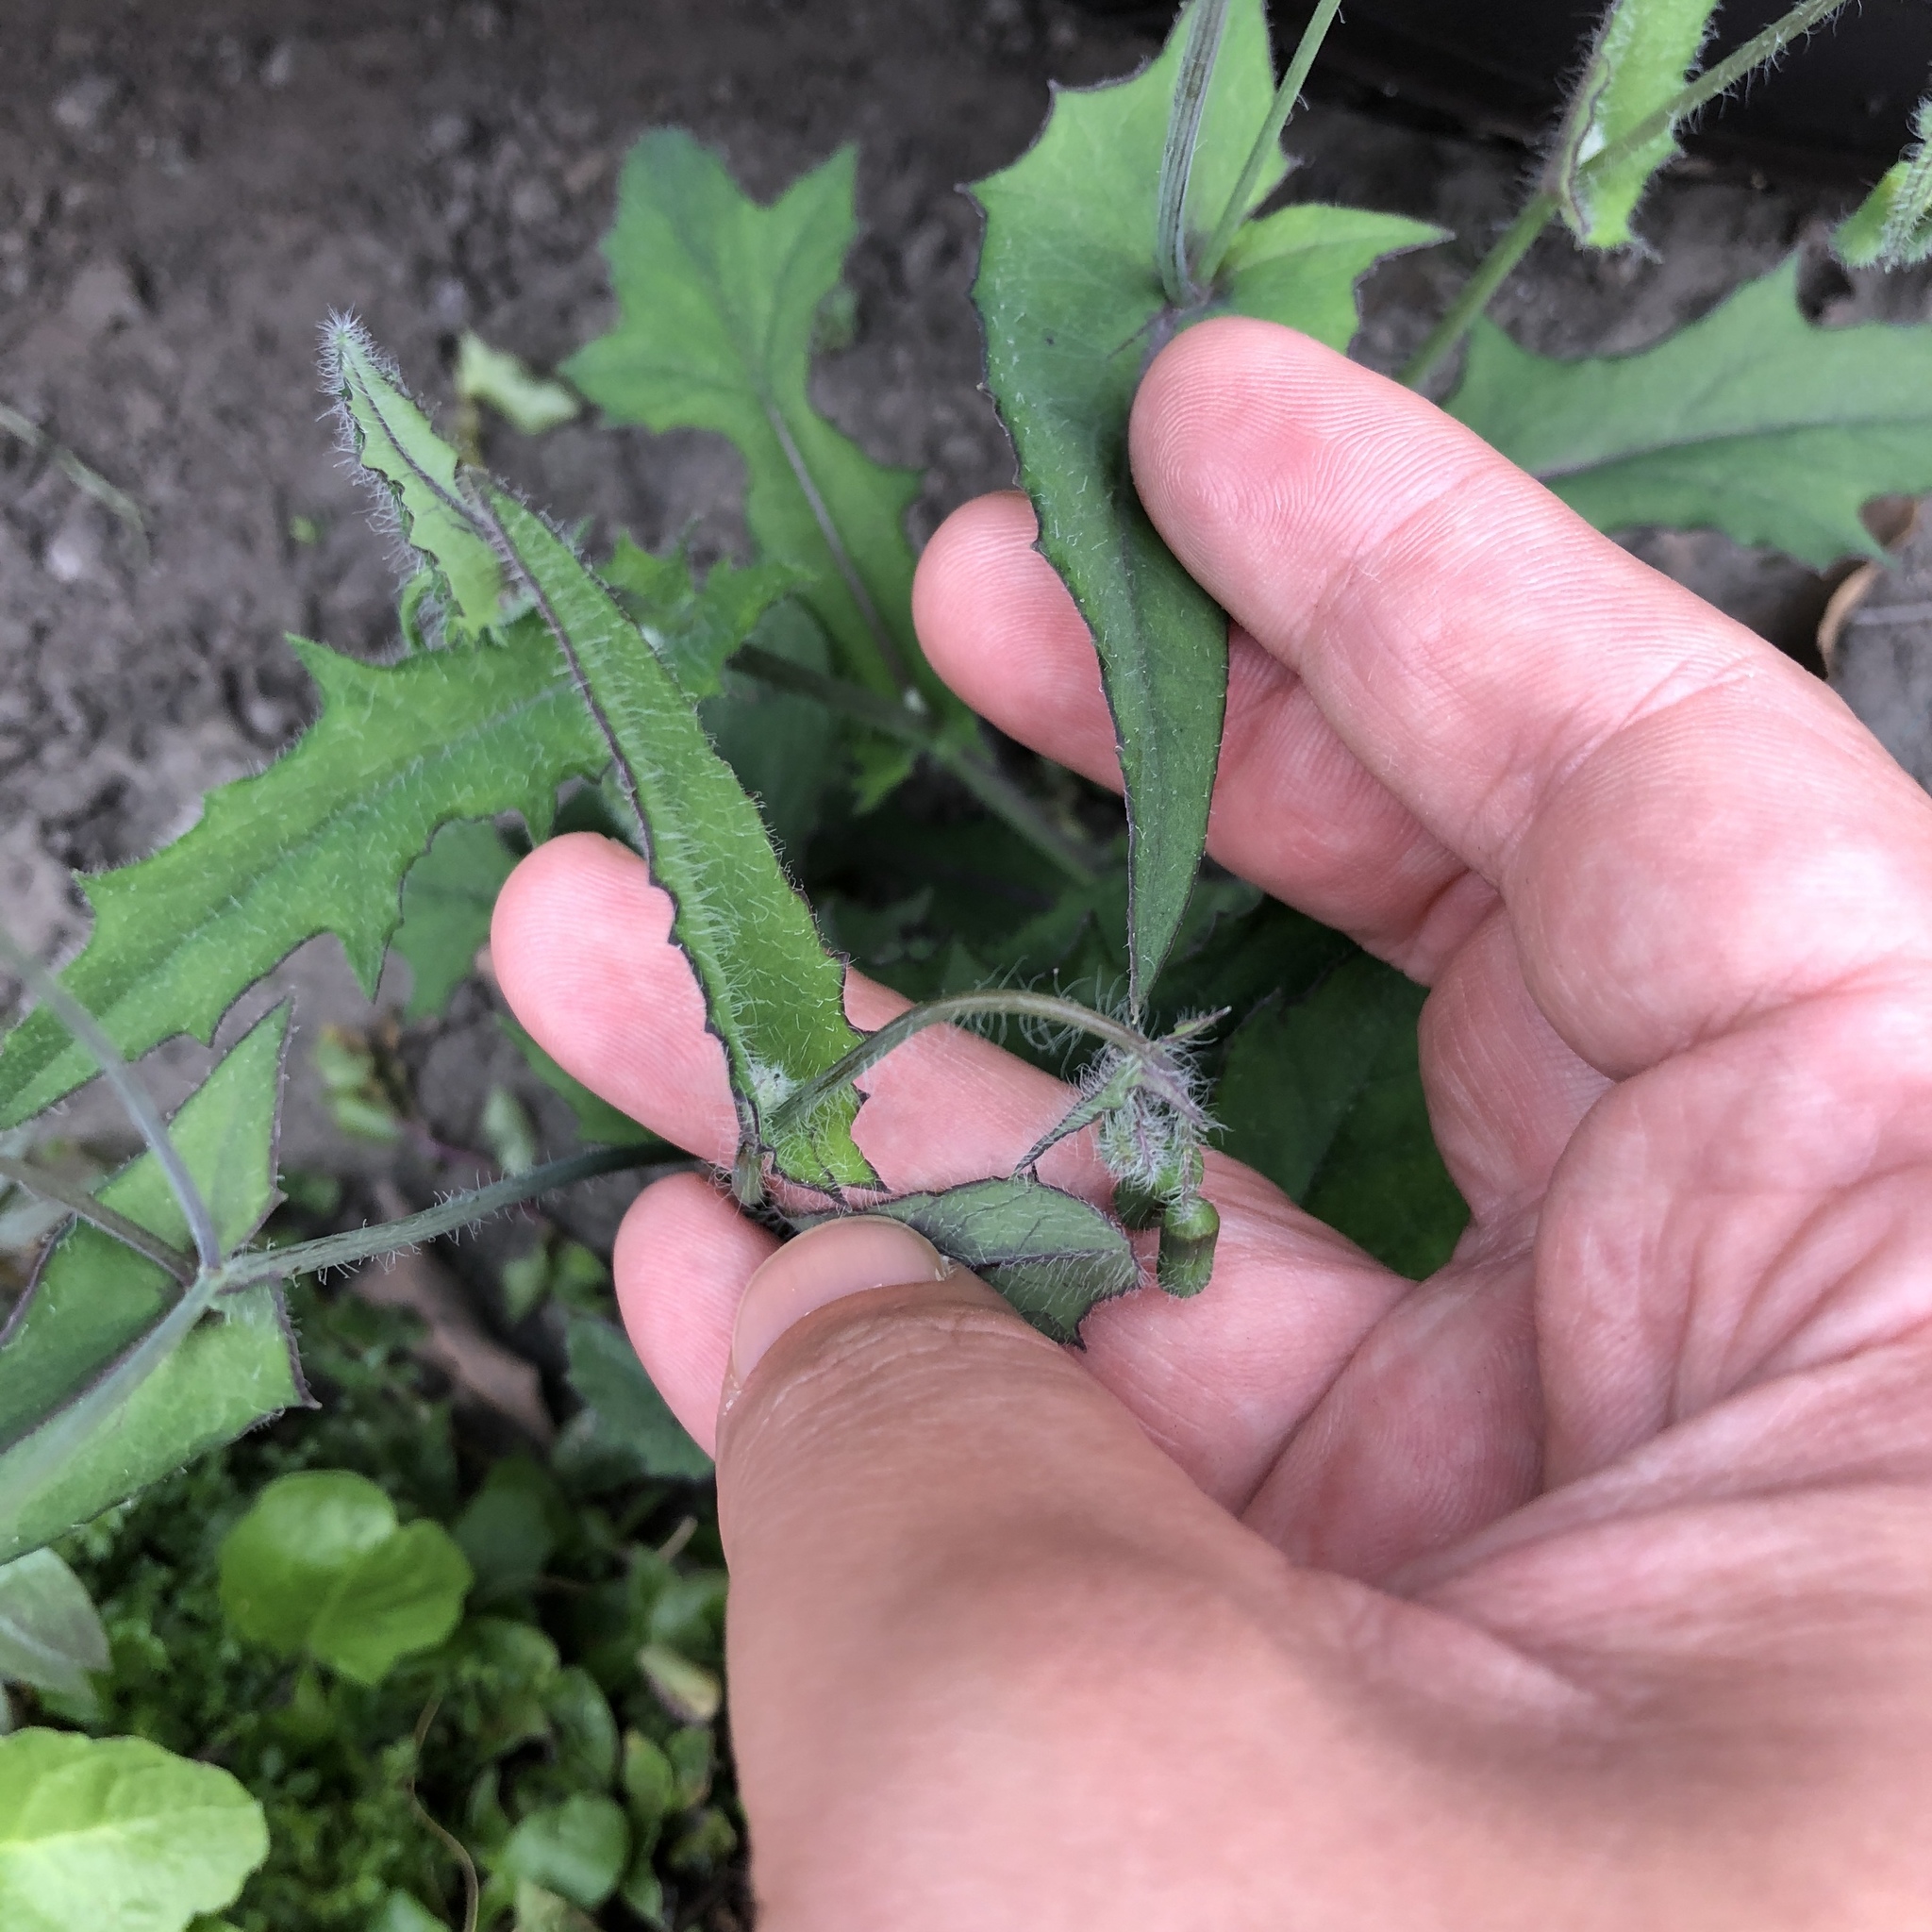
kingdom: Plantae
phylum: Tracheophyta
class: Magnoliopsida
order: Asterales
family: Asteraceae
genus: Emilia
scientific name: Emilia javanica
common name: Tassel-flower
